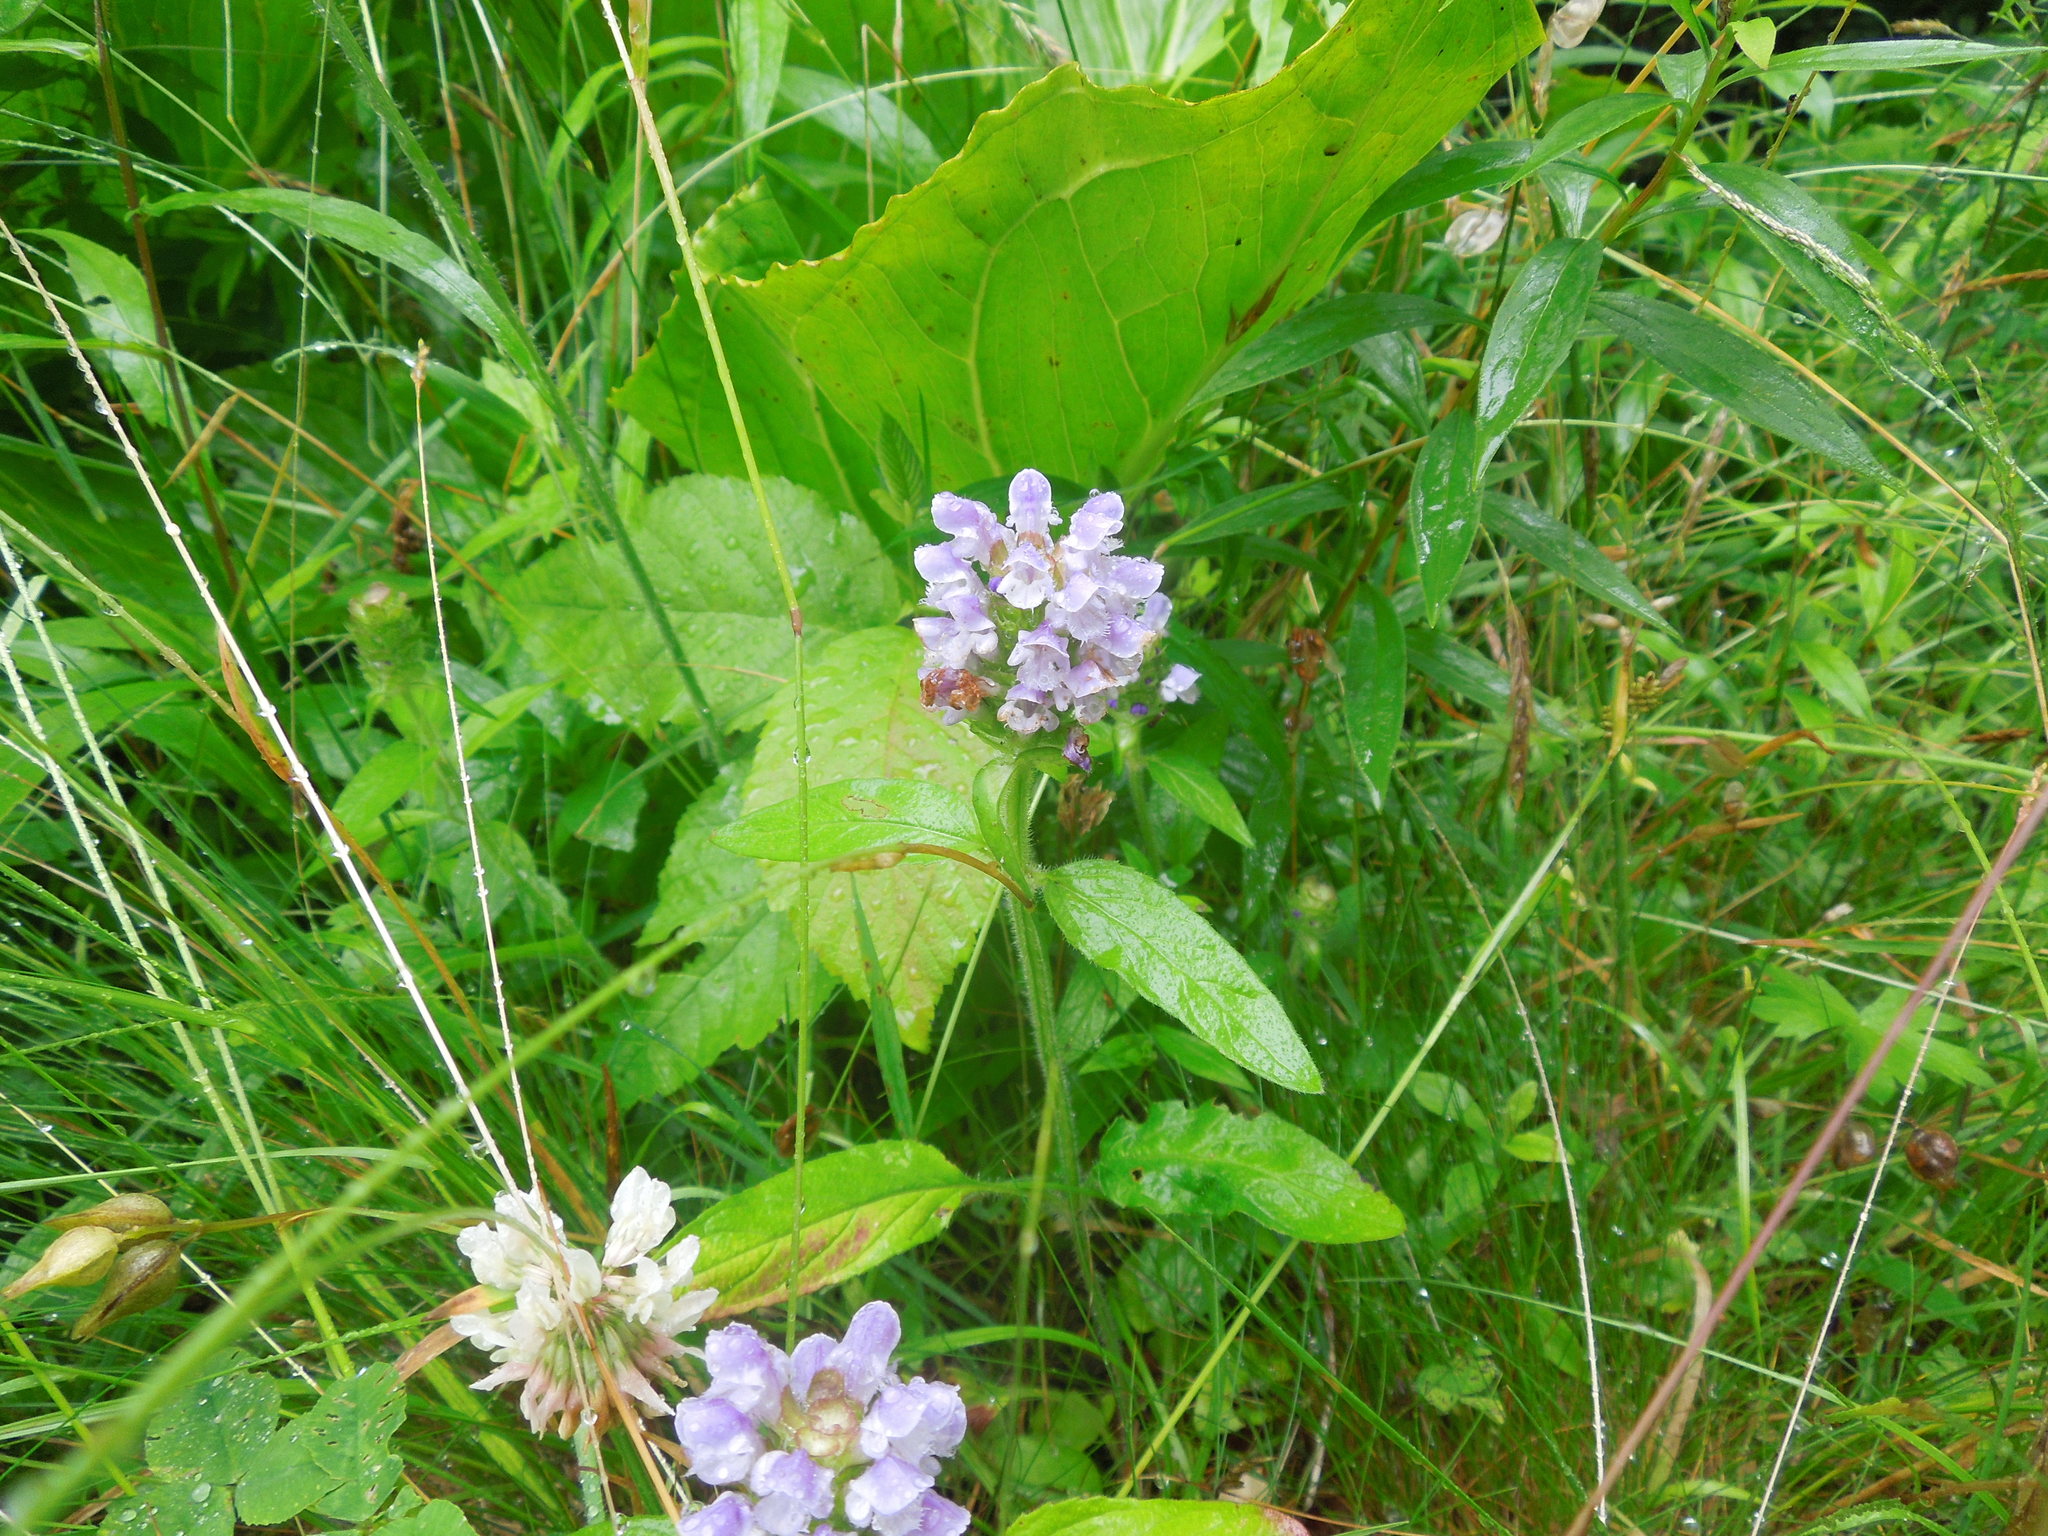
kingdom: Plantae
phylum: Tracheophyta
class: Magnoliopsida
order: Lamiales
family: Lamiaceae
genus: Prunella
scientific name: Prunella vulgaris
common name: Heal-all
